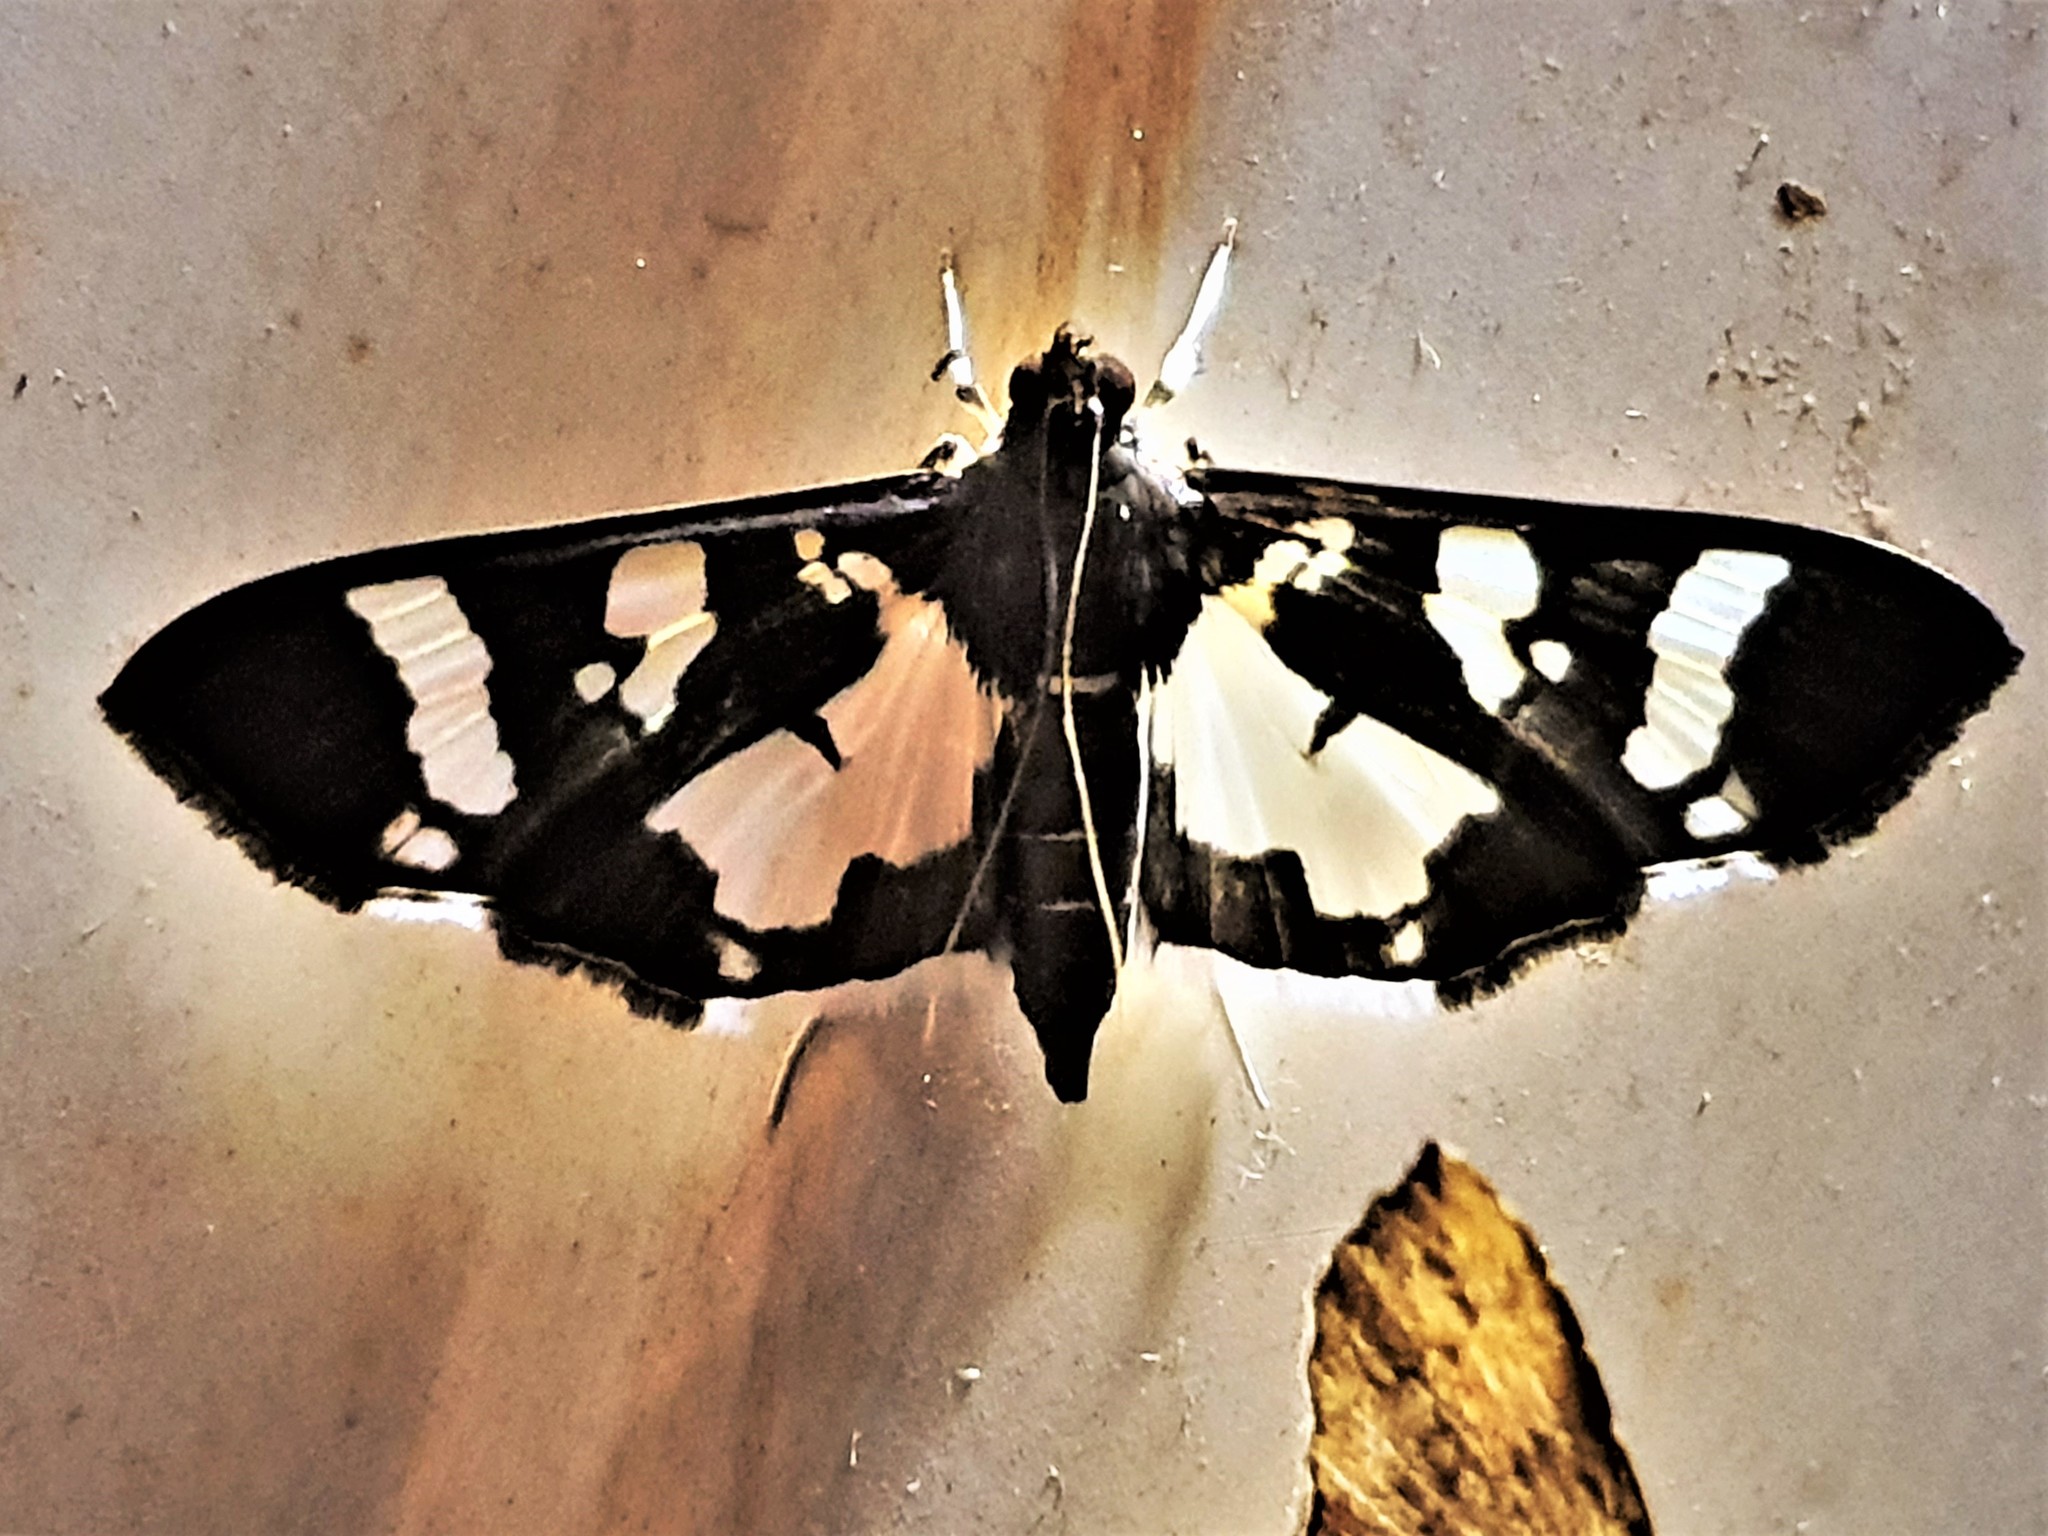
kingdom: Animalia
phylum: Arthropoda
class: Insecta
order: Lepidoptera
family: Crambidae
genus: Desmia
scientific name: Desmia bajulalis
